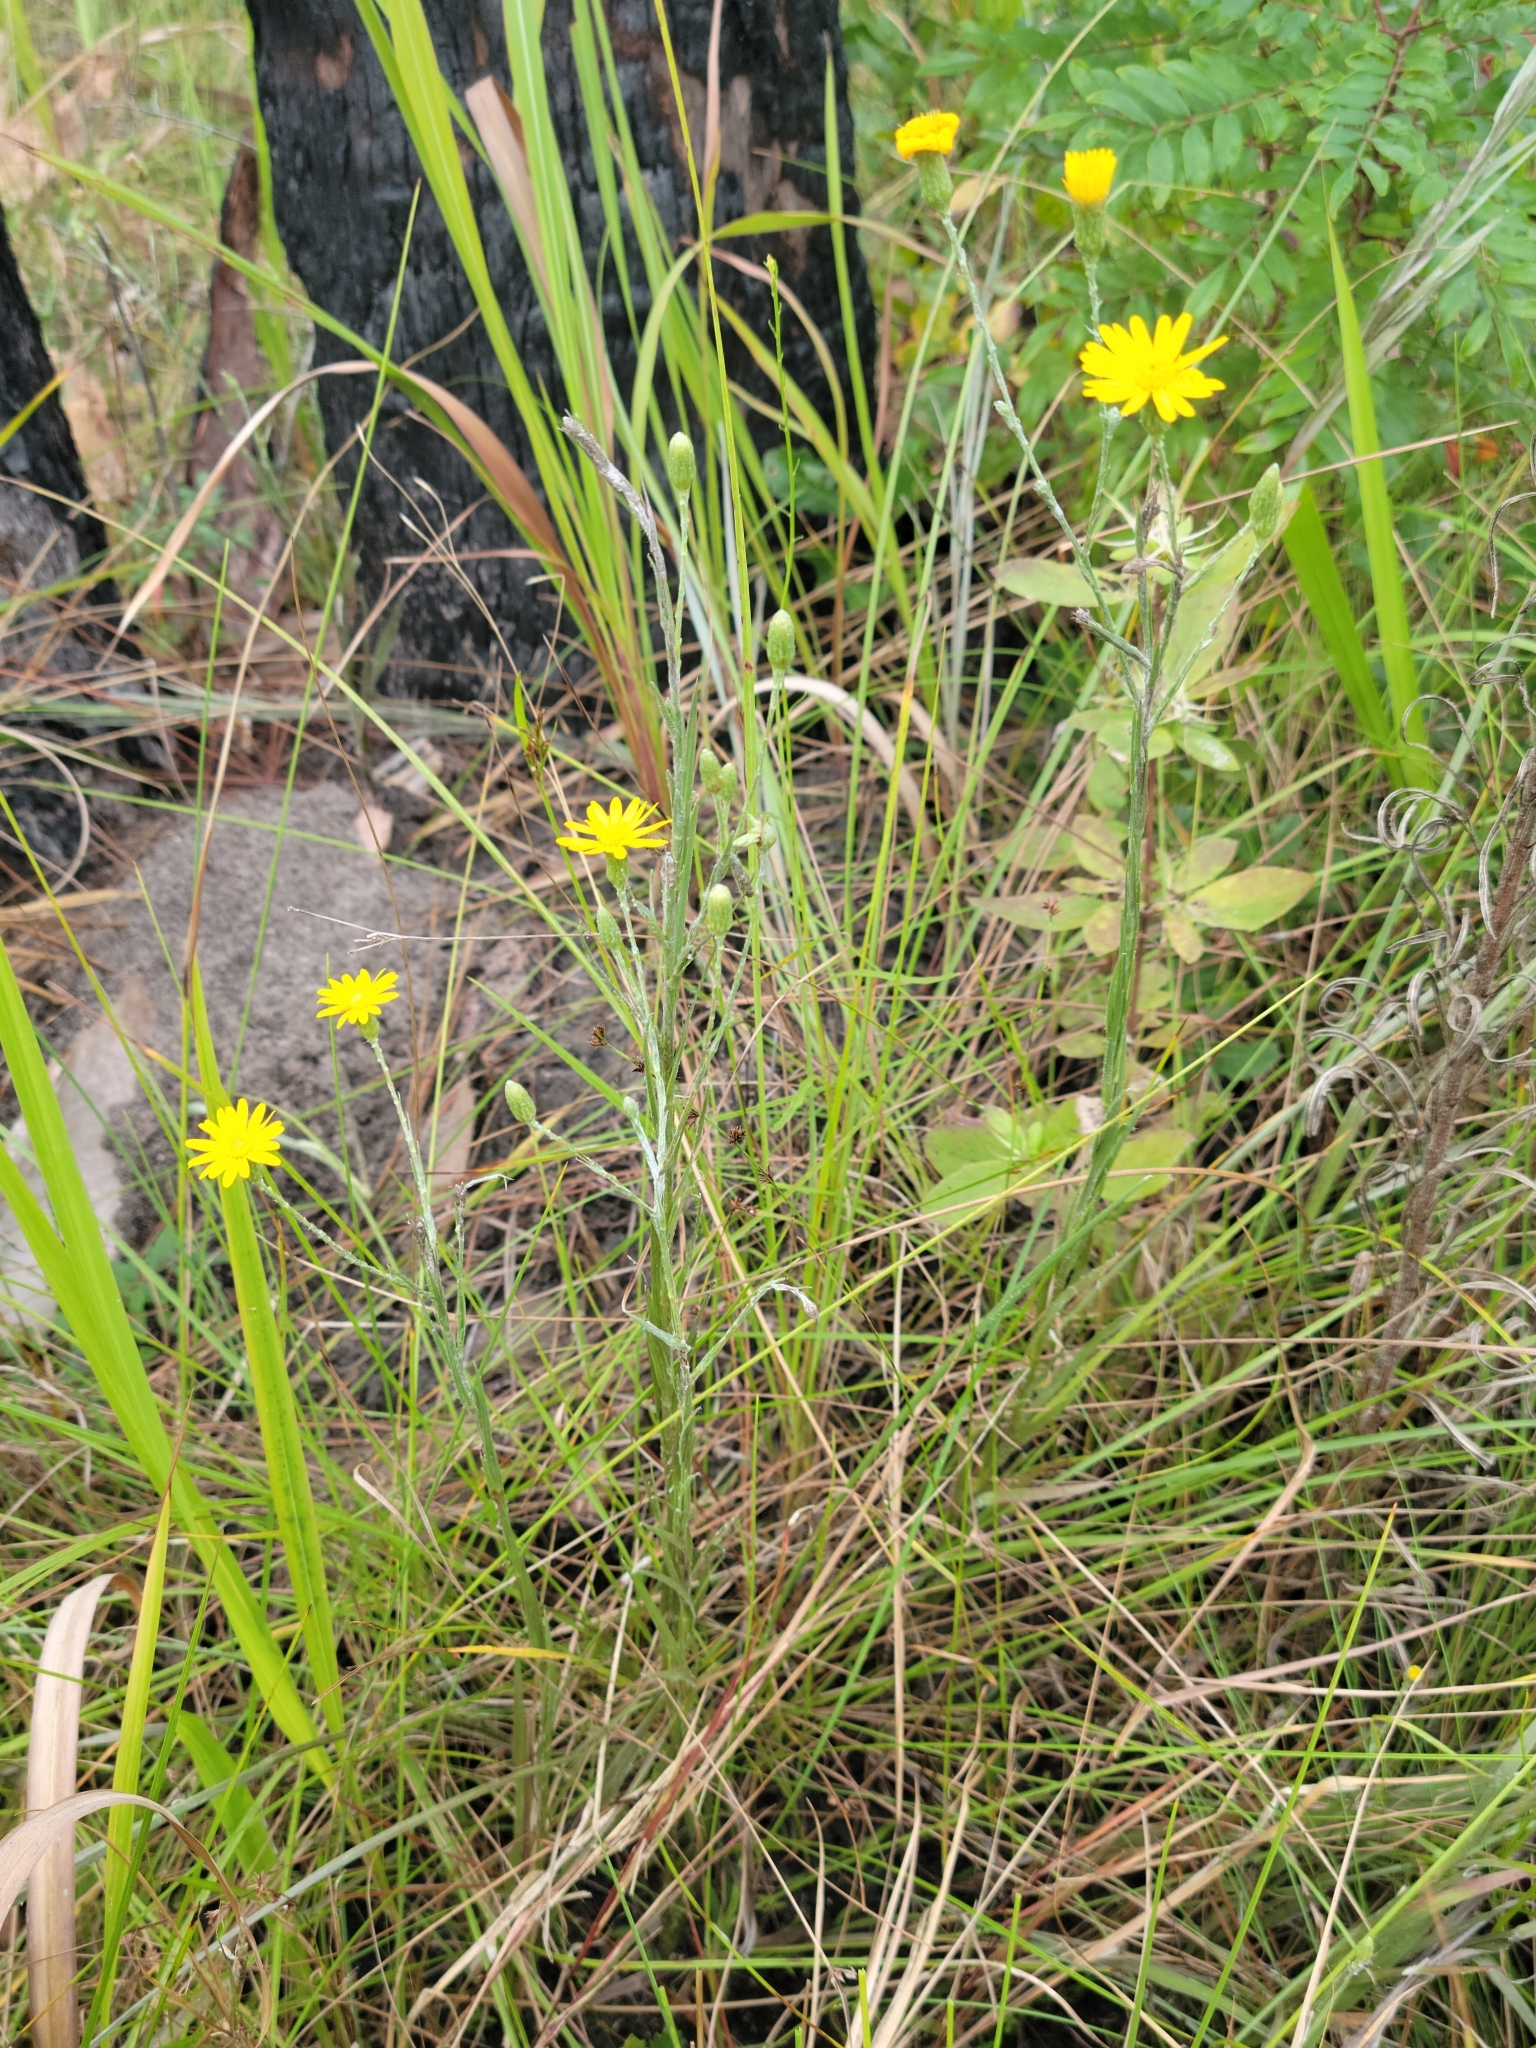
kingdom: Plantae
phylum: Tracheophyta
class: Magnoliopsida
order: Asterales
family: Asteraceae
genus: Pityopsis
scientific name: Pityopsis tracyi
